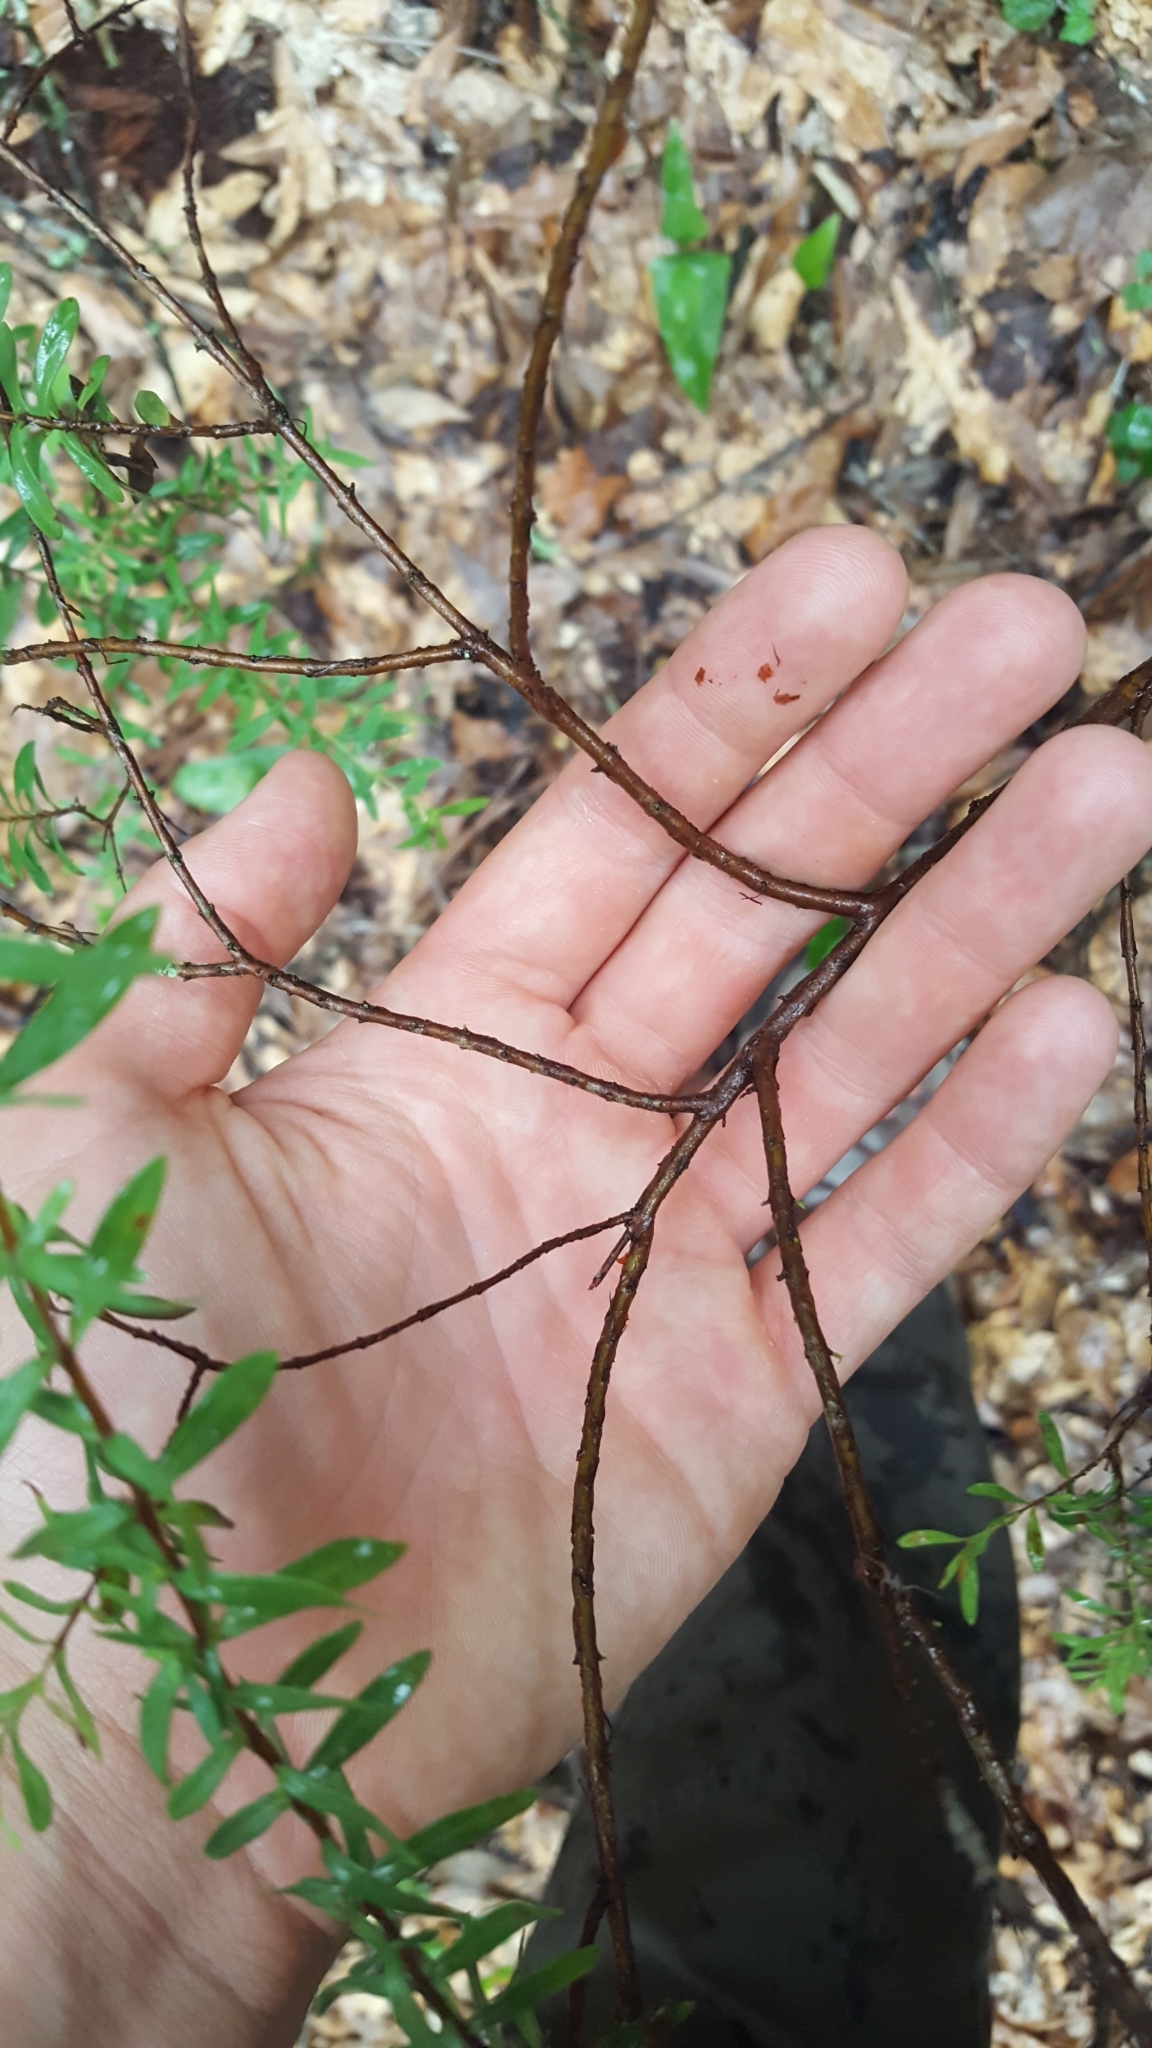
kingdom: Plantae
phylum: Tracheophyta
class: Magnoliopsida
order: Malpighiales
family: Hypericaceae
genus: Hypericum
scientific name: Hypericum hypericoides
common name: St. andrew's cross
